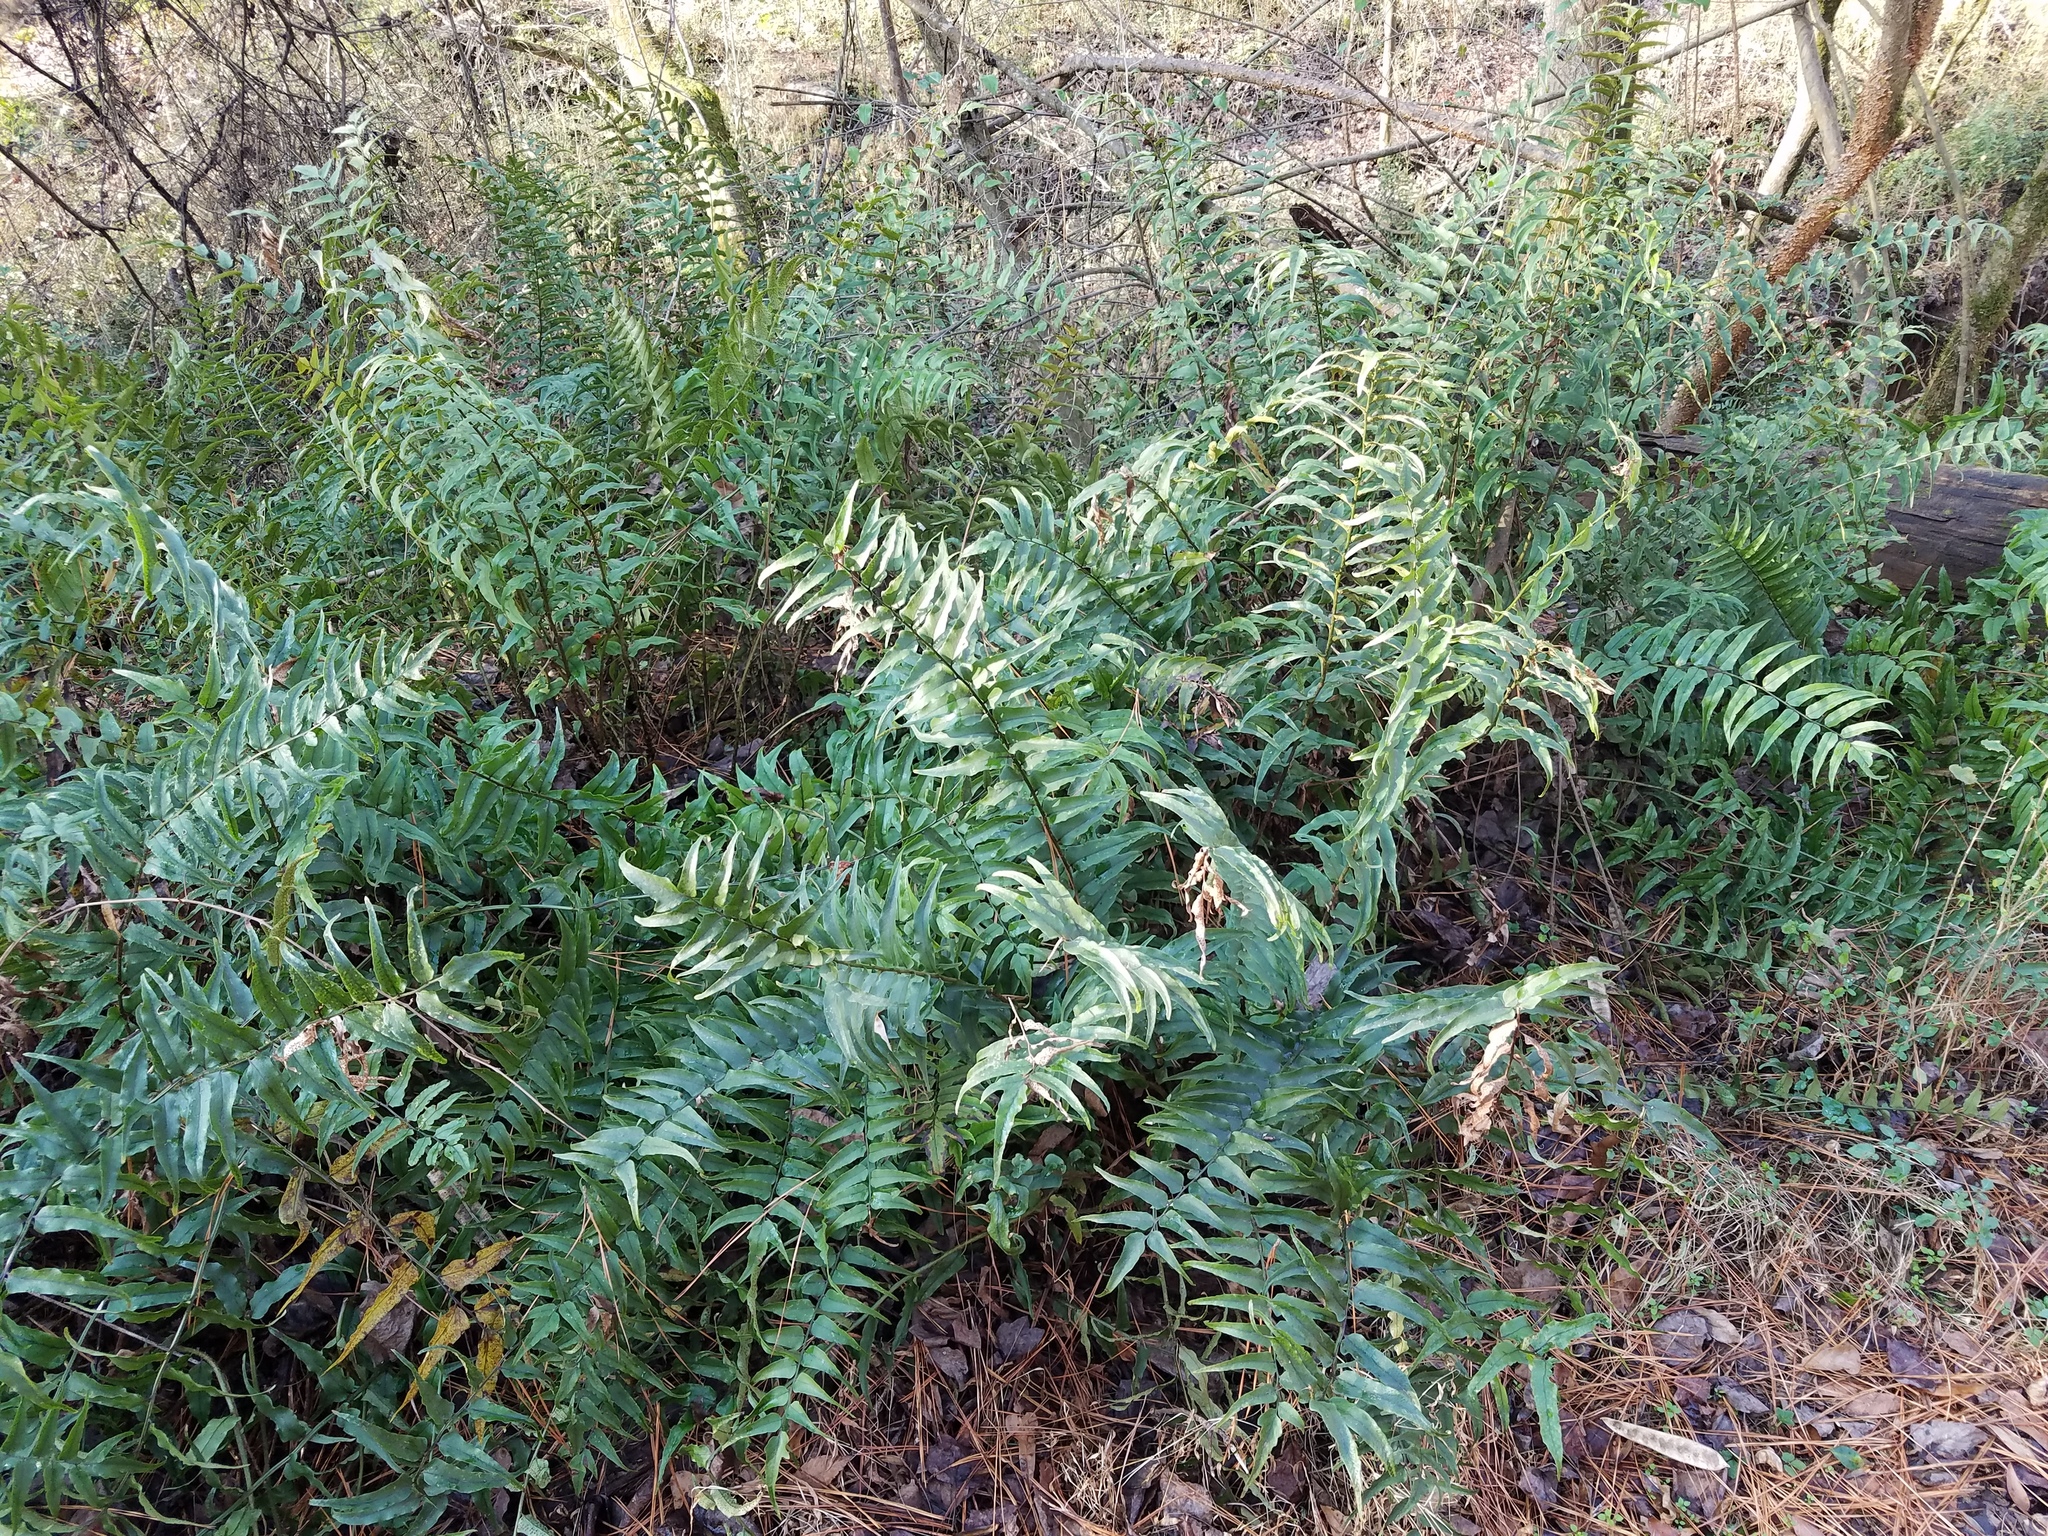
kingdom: Plantae
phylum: Tracheophyta
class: Polypodiopsida
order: Polypodiales
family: Dryopteridaceae
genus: Cyrtomium
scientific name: Cyrtomium fortunei
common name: Asian netvein hollyfern
